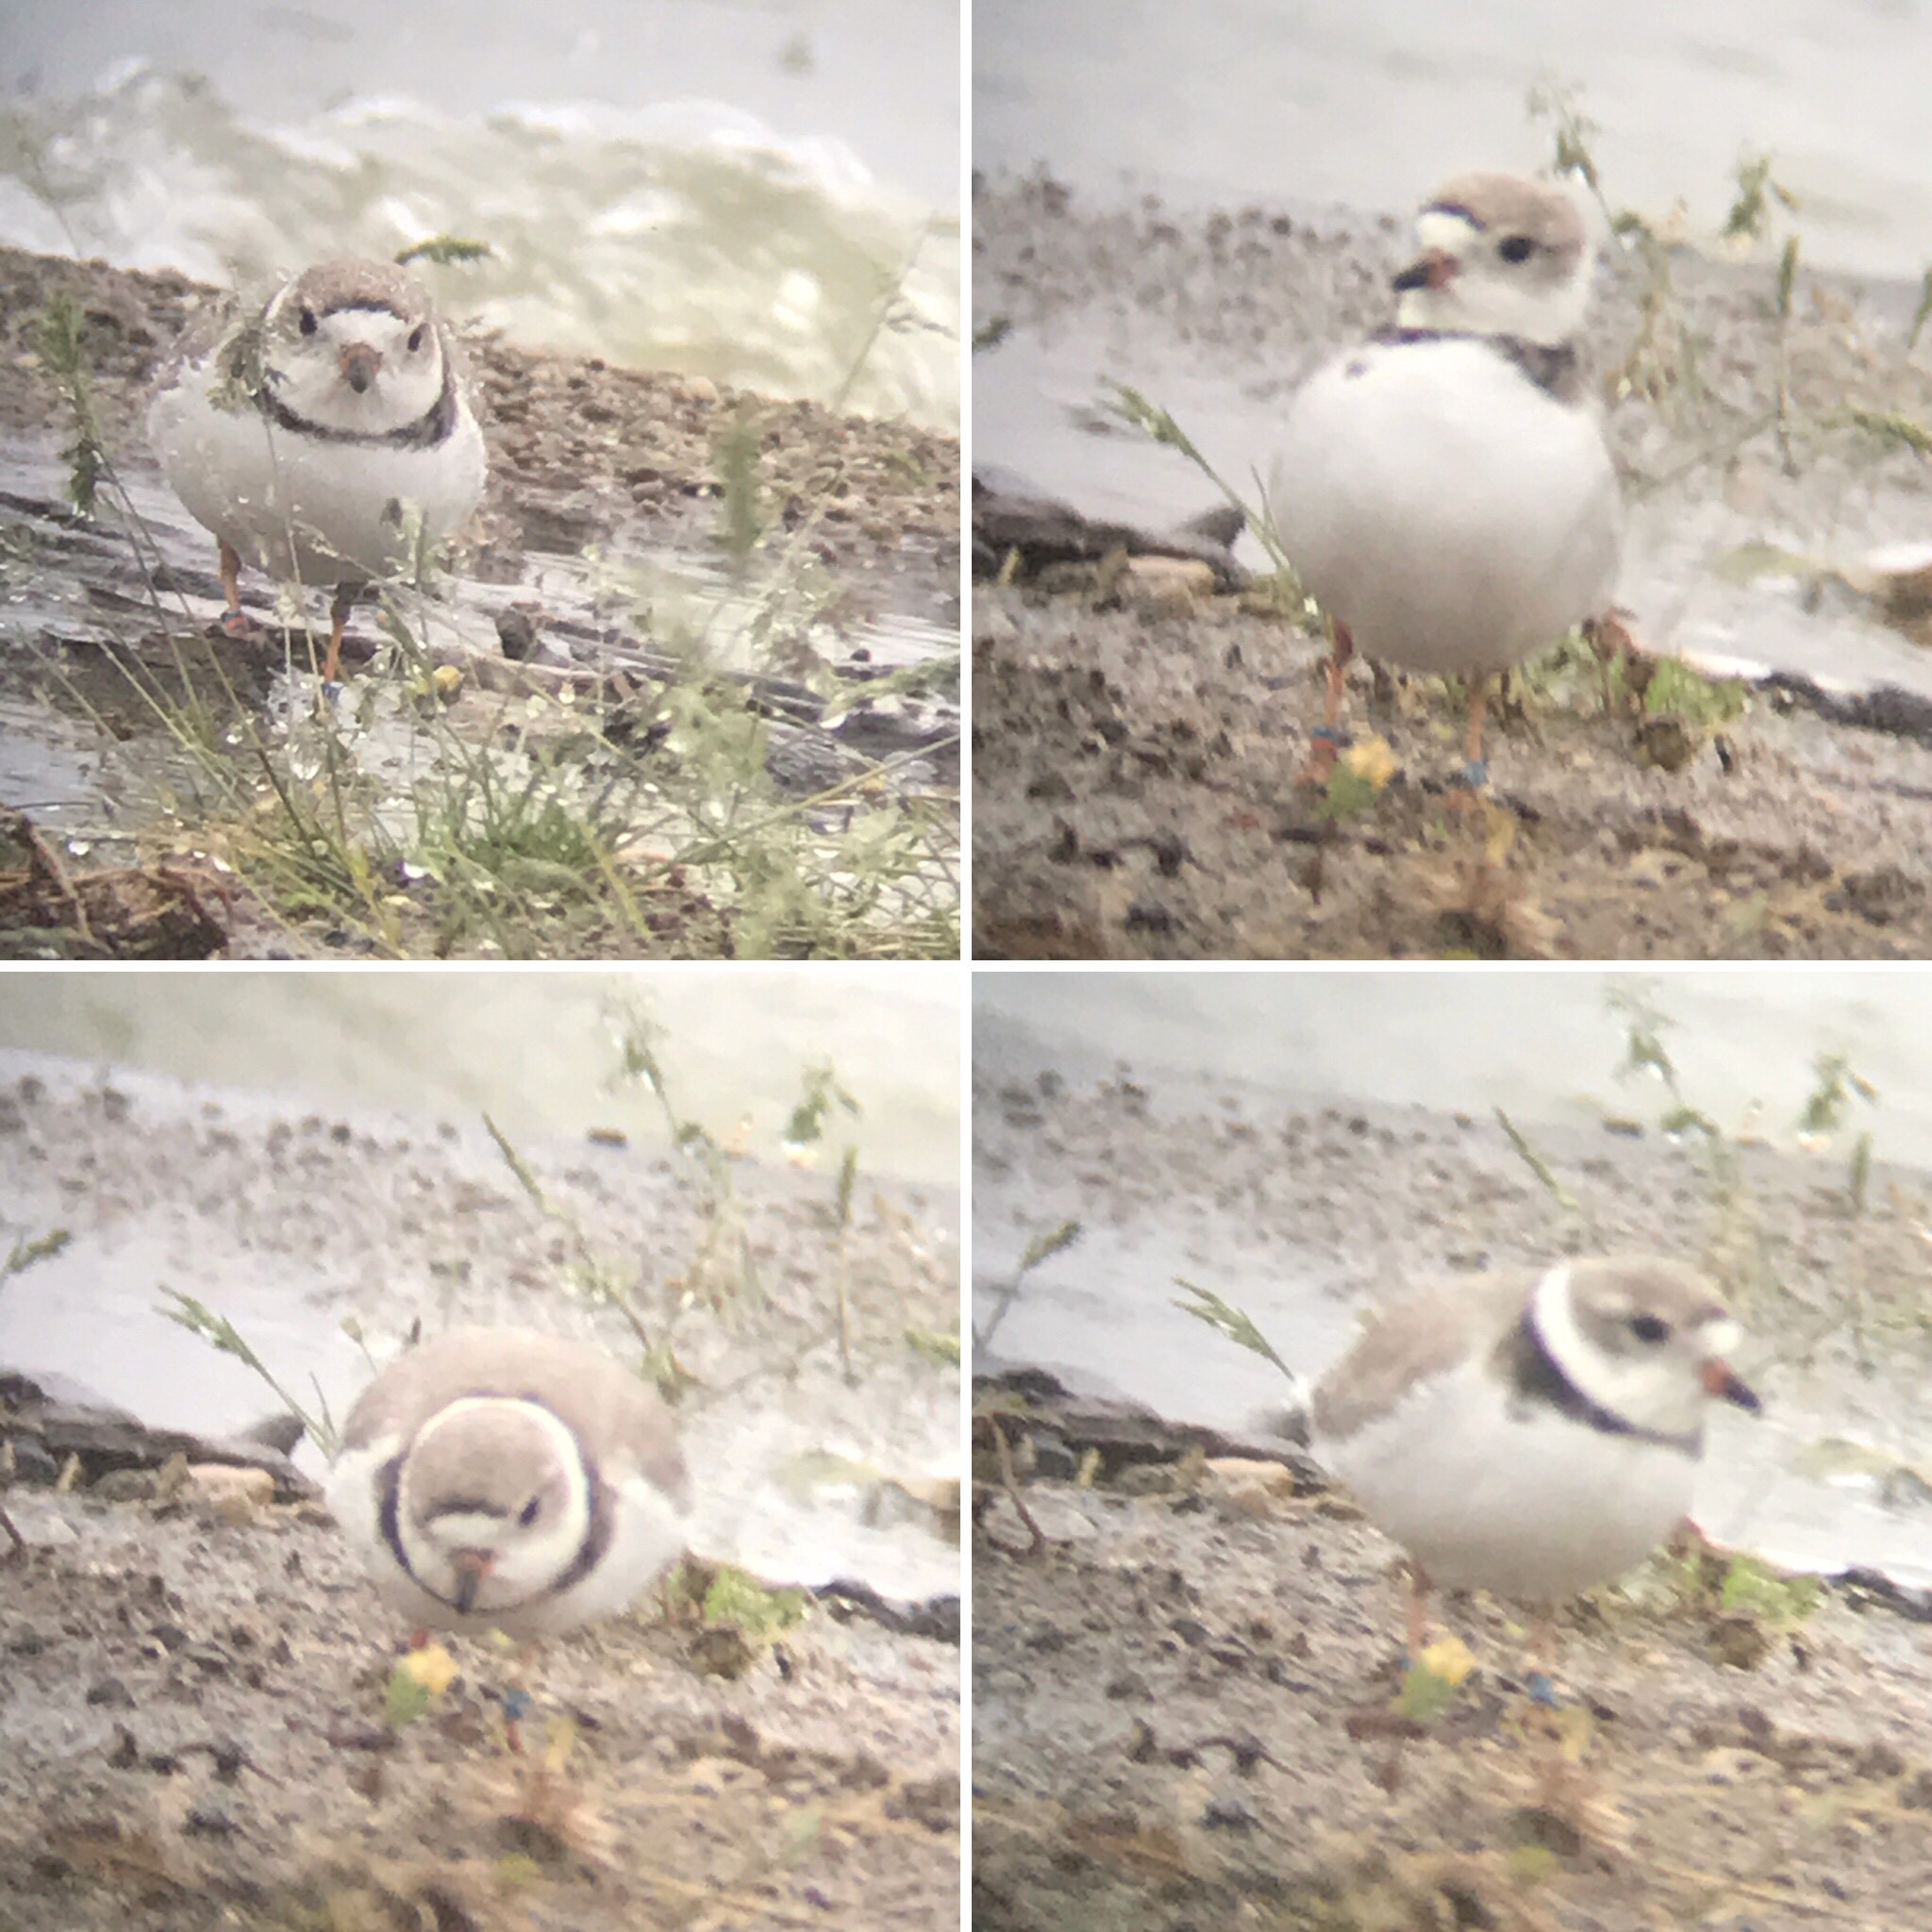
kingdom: Animalia
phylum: Chordata
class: Aves
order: Charadriiformes
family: Charadriidae
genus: Charadrius
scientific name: Charadrius melodus
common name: Piping plover
